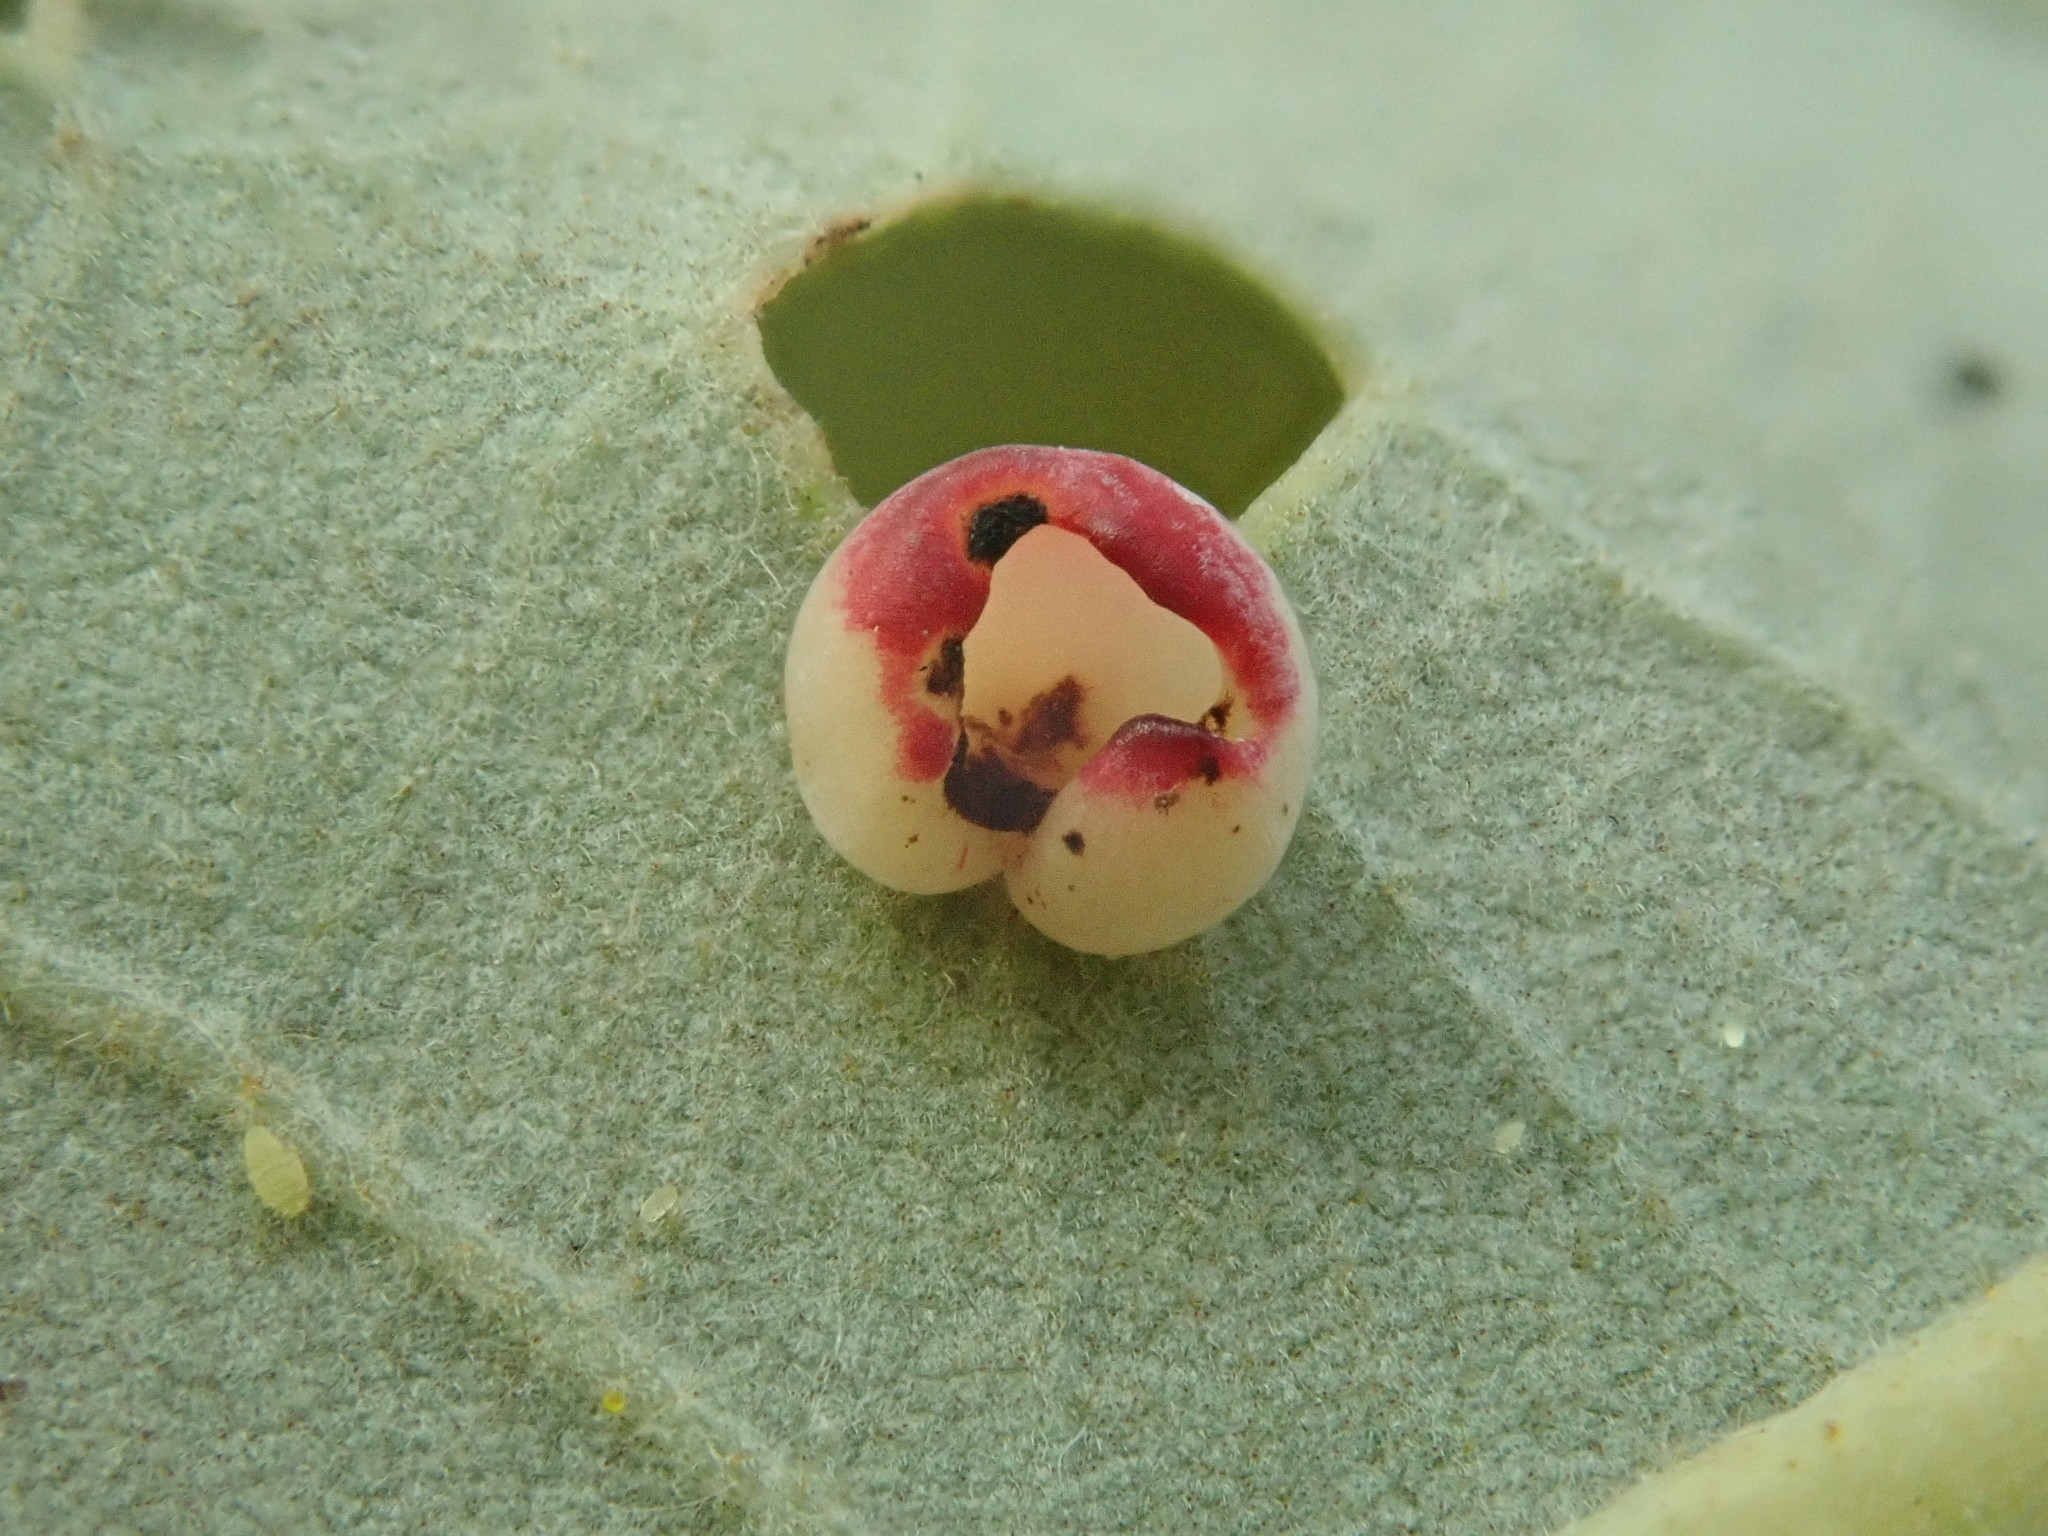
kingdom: Animalia
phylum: Arthropoda
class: Insecta
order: Hymenoptera
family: Cynipidae
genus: Phylloteras
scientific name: Phylloteras
